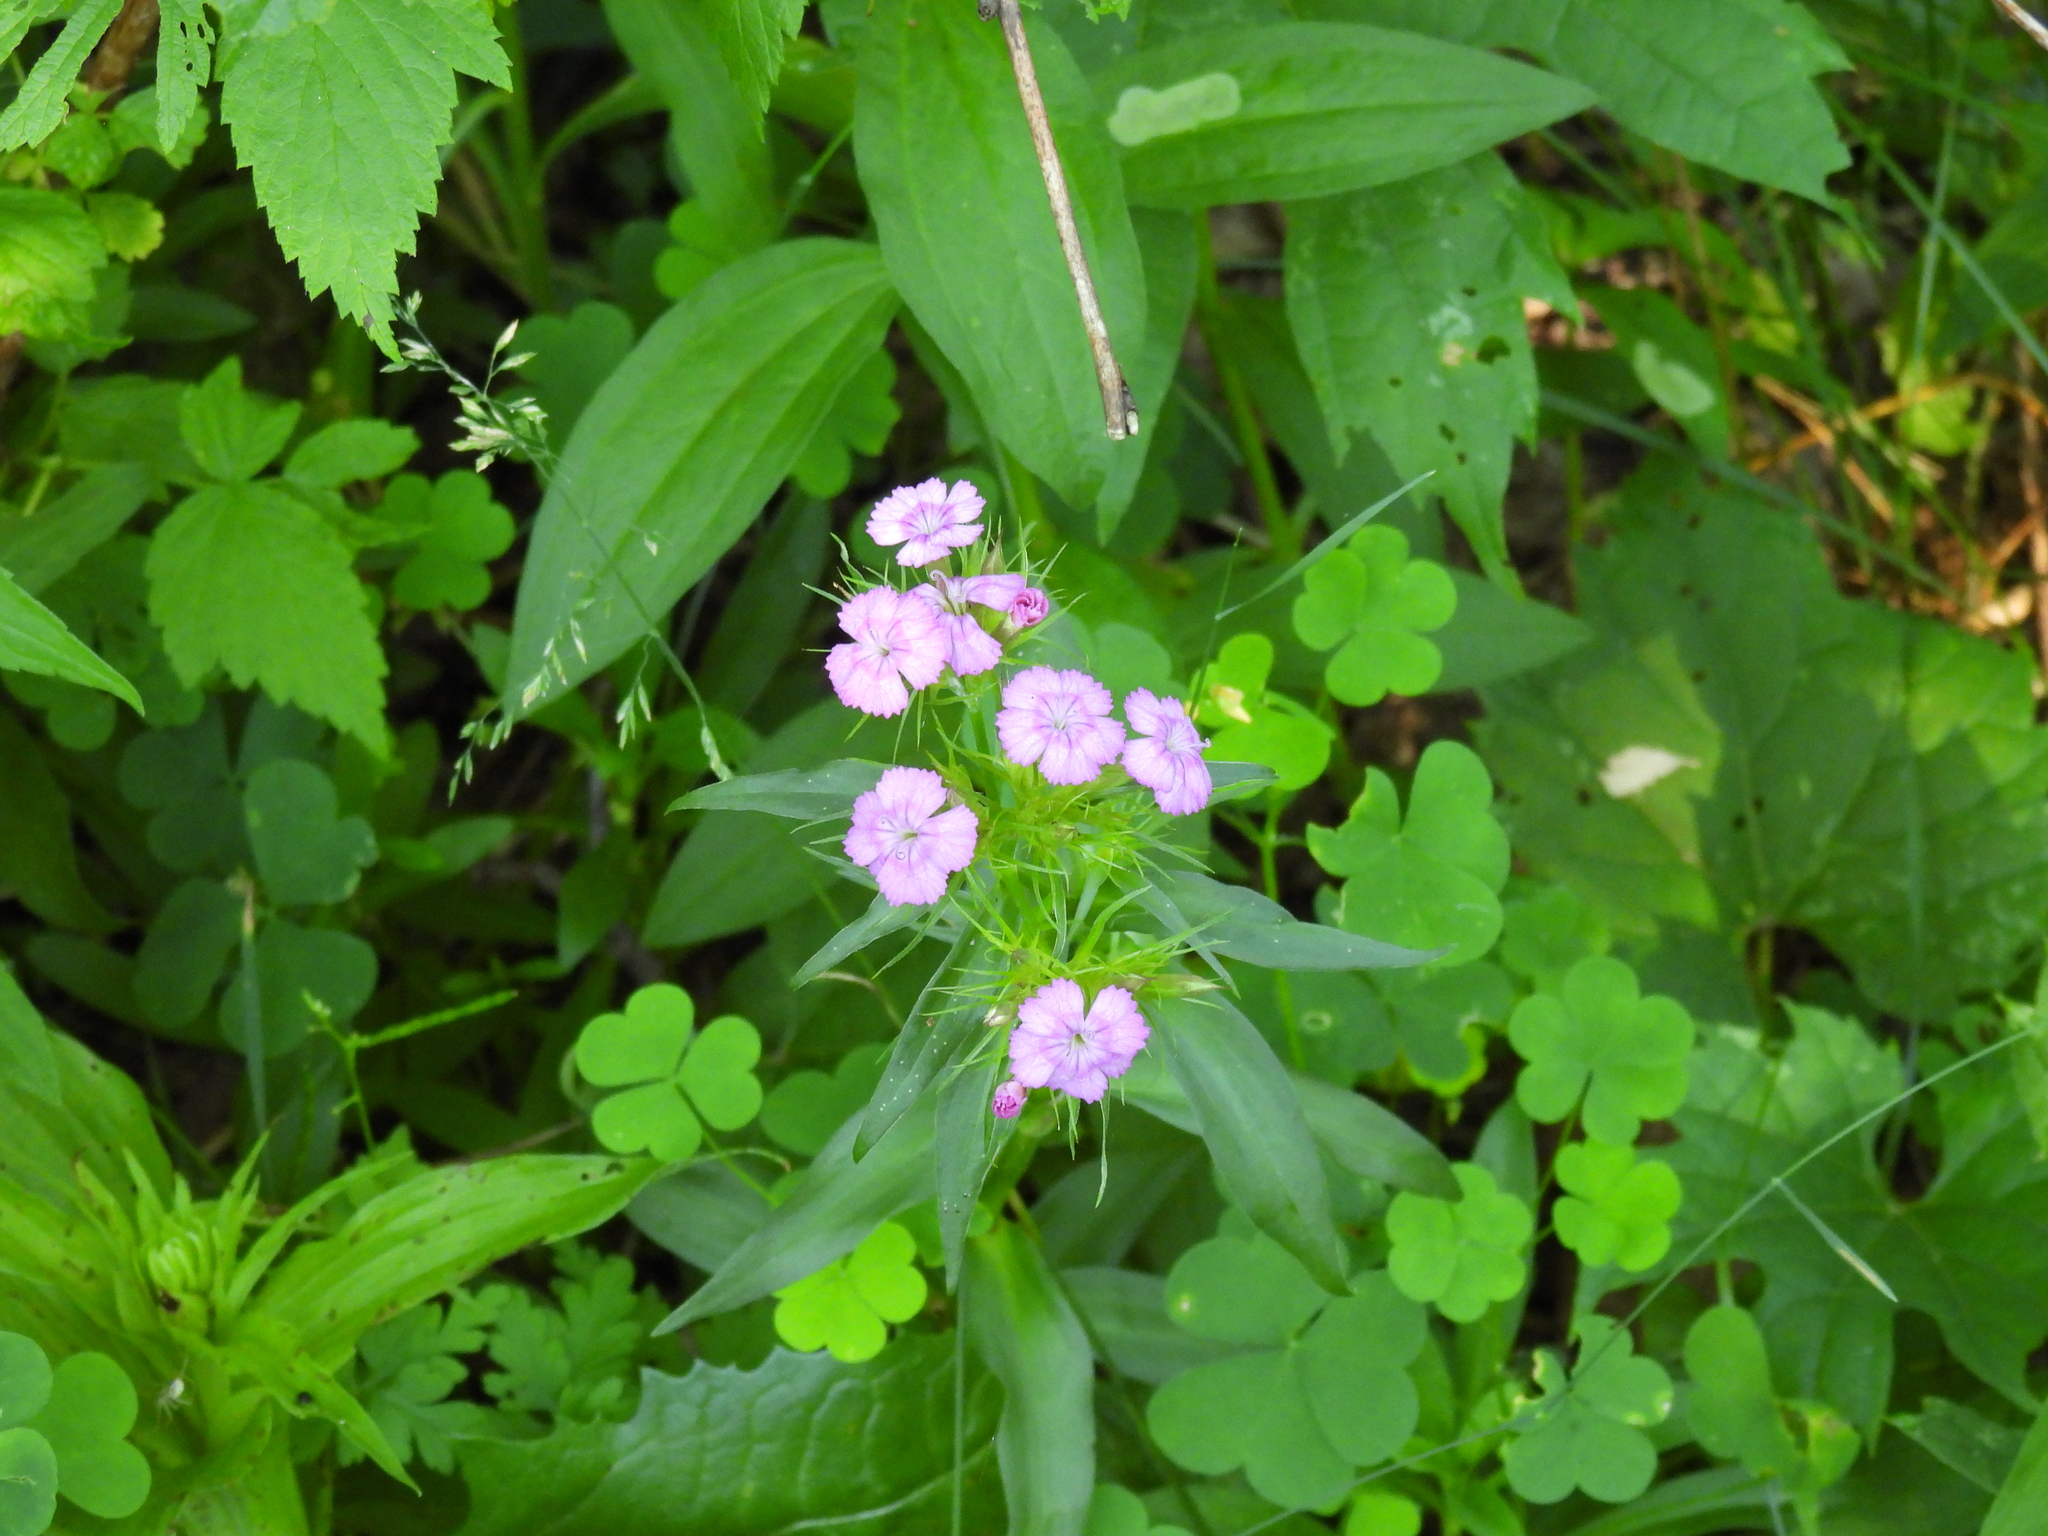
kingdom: Plantae
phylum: Tracheophyta
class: Magnoliopsida
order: Caryophyllales
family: Caryophyllaceae
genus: Dianthus
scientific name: Dianthus barbatus
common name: Sweet-william
